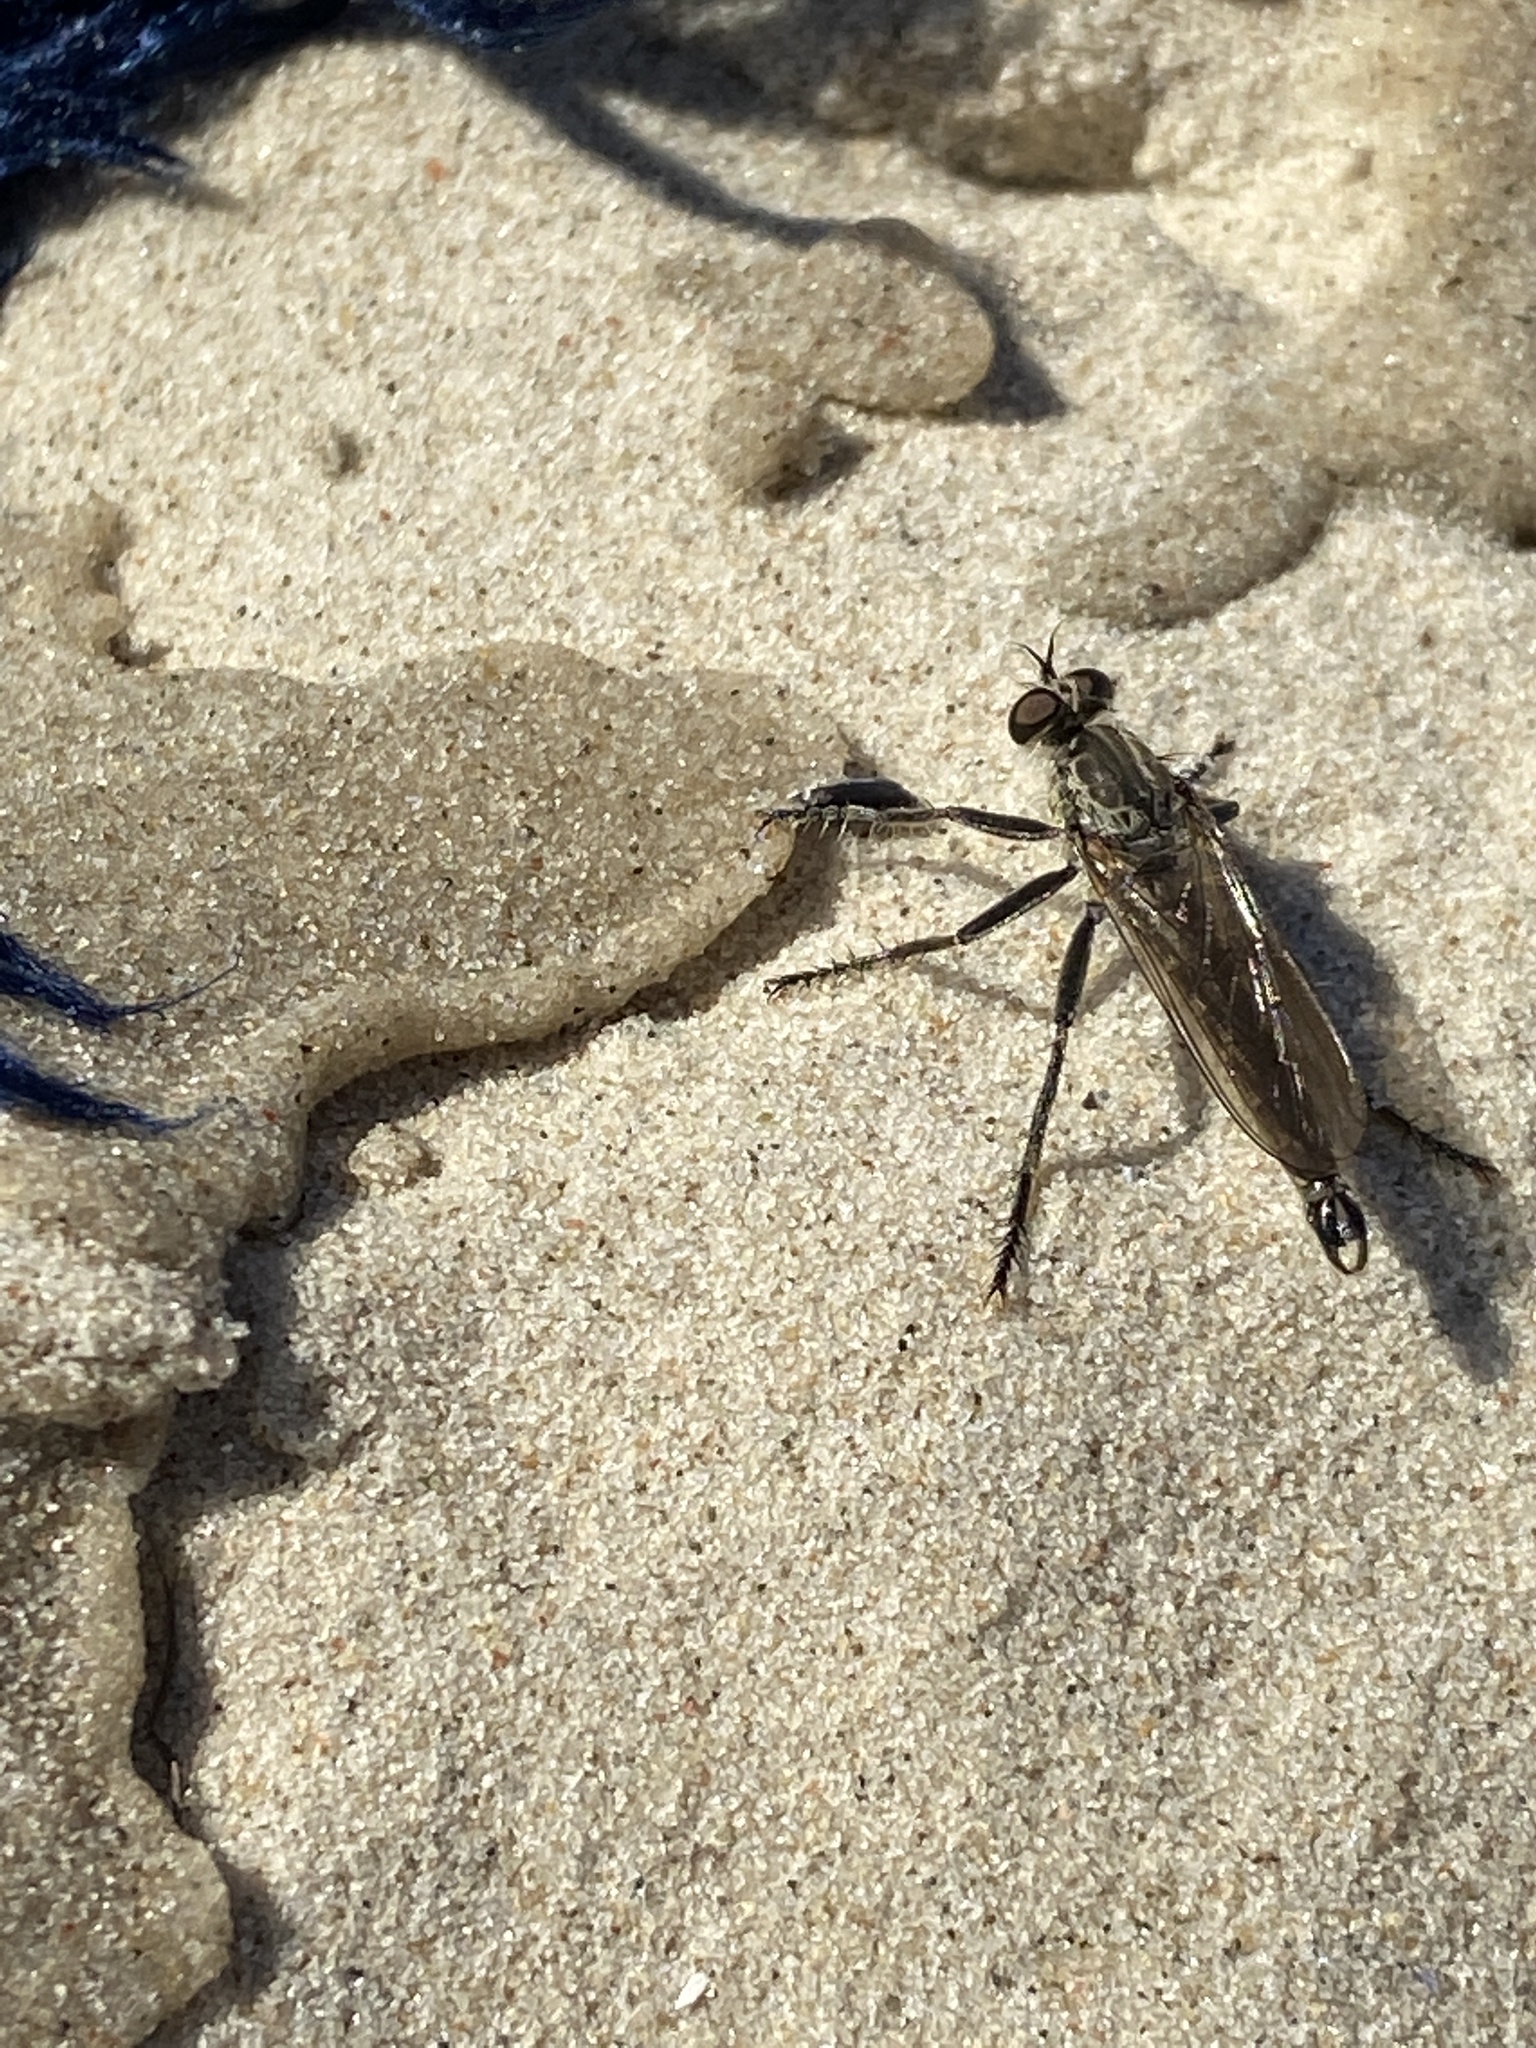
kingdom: Animalia
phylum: Arthropoda
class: Insecta
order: Diptera
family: Asilidae
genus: Philonicus
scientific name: Philonicus albiceps
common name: Dune robberfly
